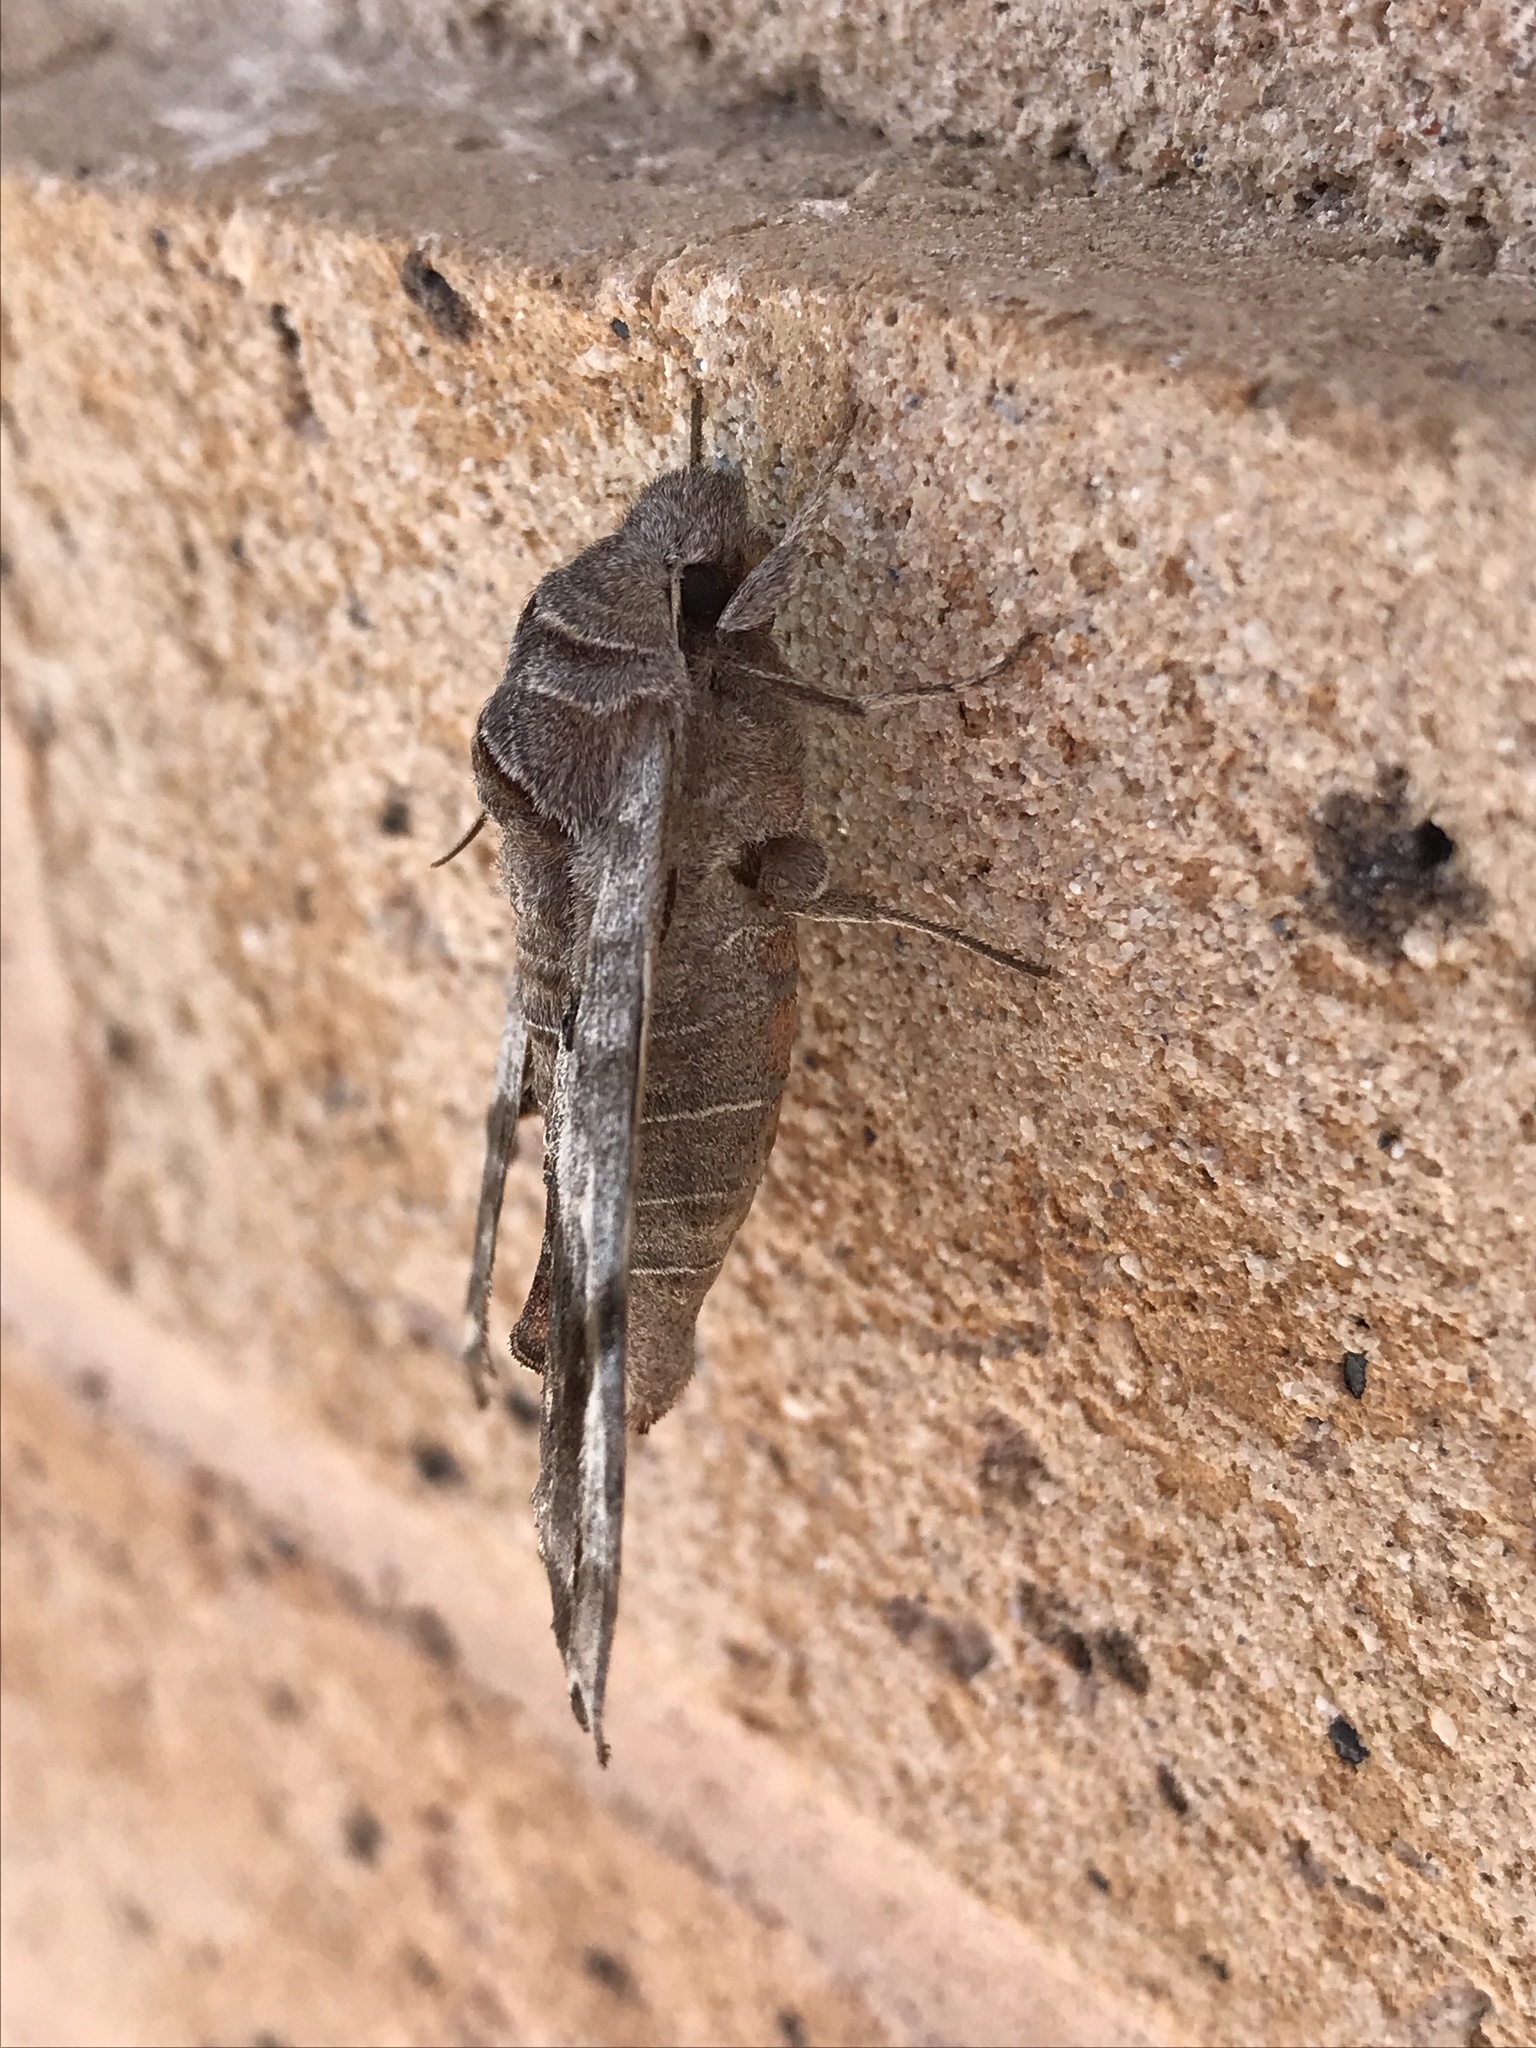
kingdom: Animalia
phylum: Arthropoda
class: Insecta
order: Lepidoptera
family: Sphingidae
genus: Deidamia
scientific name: Deidamia inscriptum
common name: Lettered sphinx
